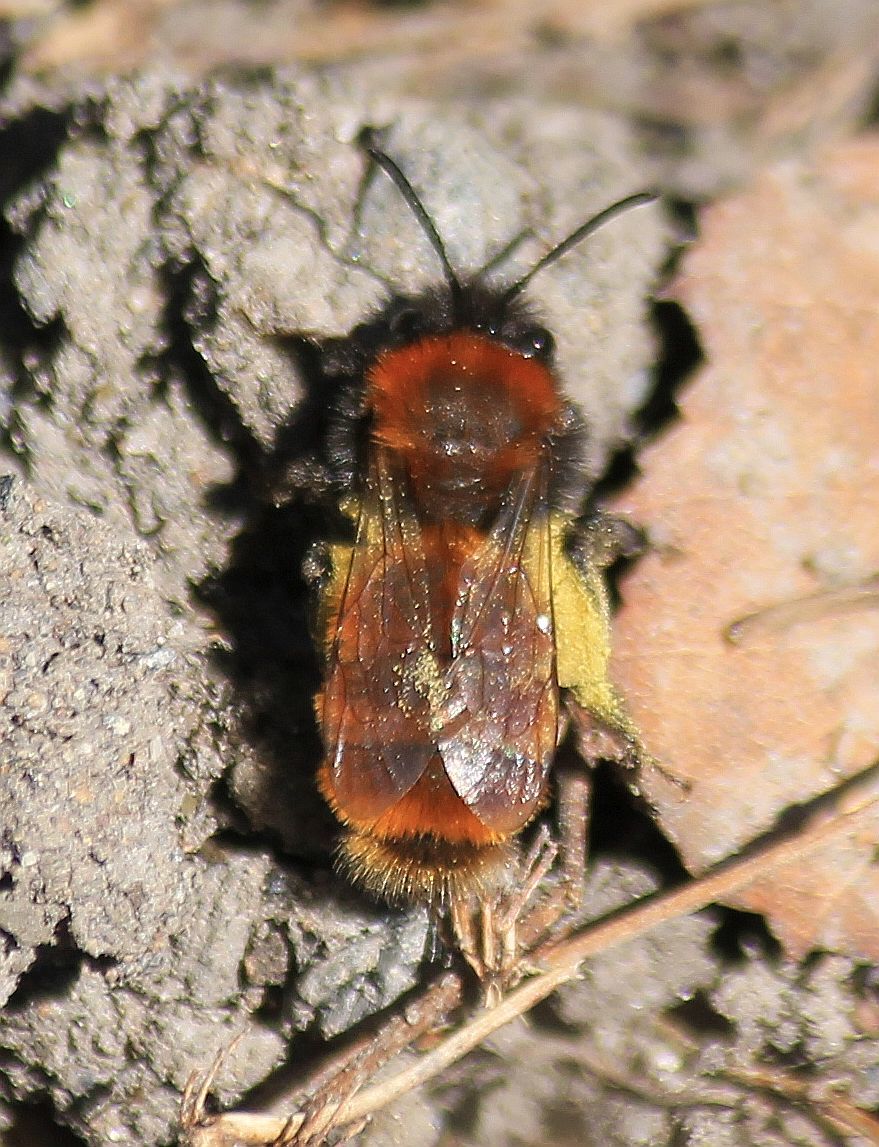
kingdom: Animalia
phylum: Arthropoda
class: Insecta
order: Hymenoptera
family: Andrenidae
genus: Andrena
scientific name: Andrena fulva
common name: Tawny mining bee
